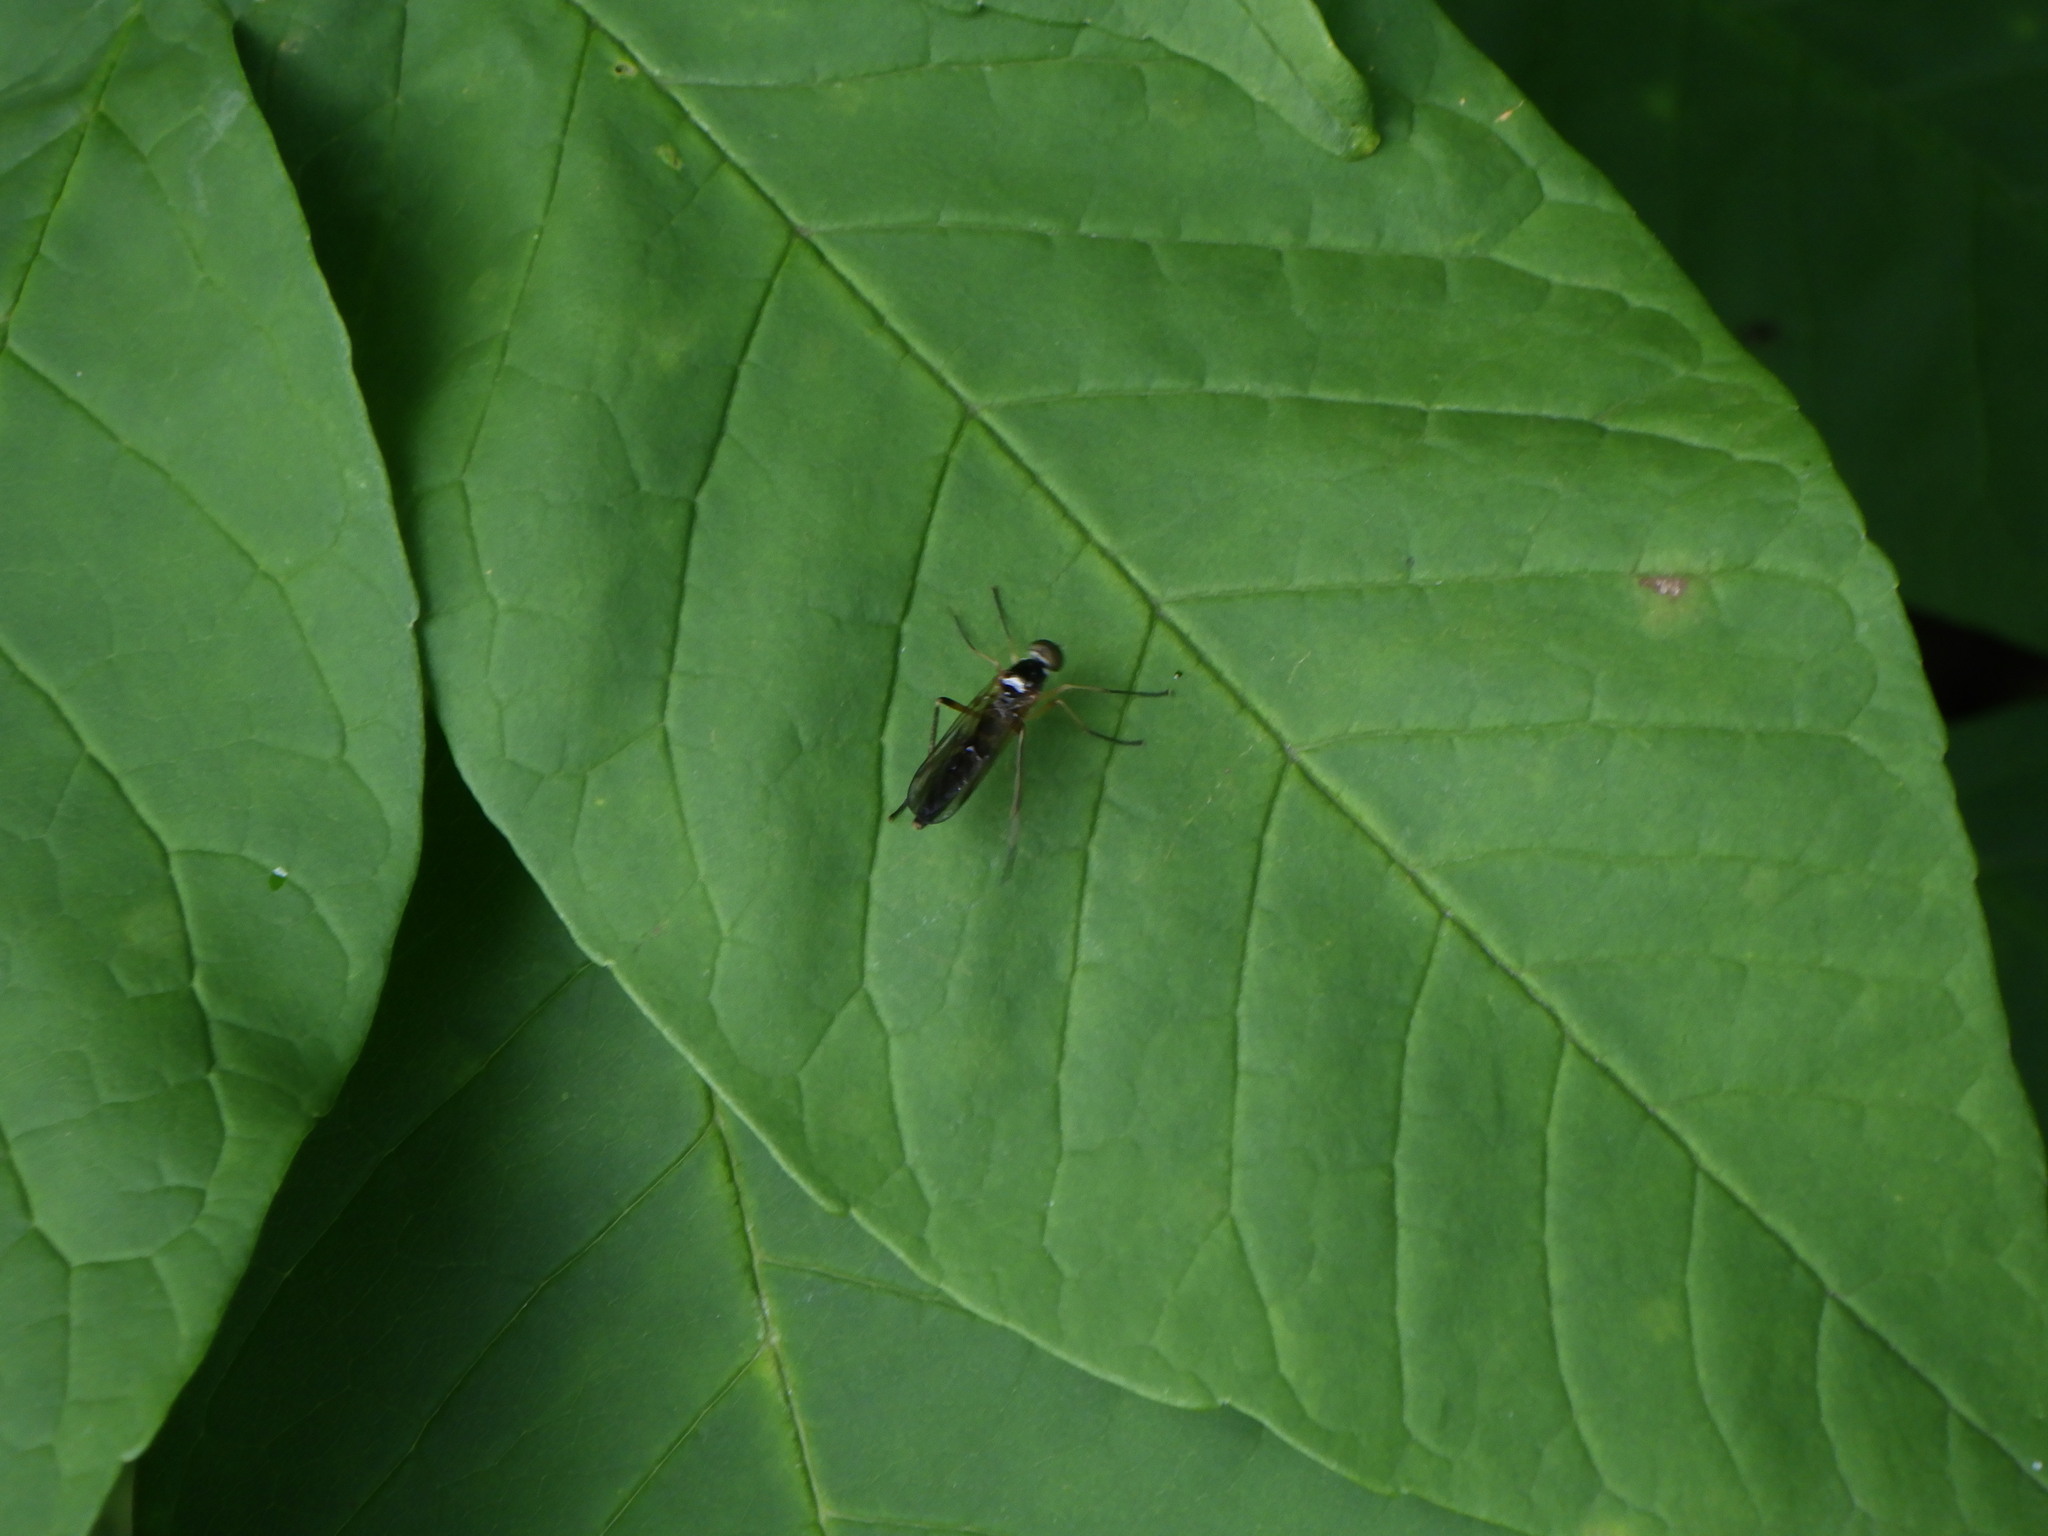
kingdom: Animalia
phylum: Arthropoda
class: Insecta
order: Diptera
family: Xylophagidae
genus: Dialysis
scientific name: Dialysis elongata
